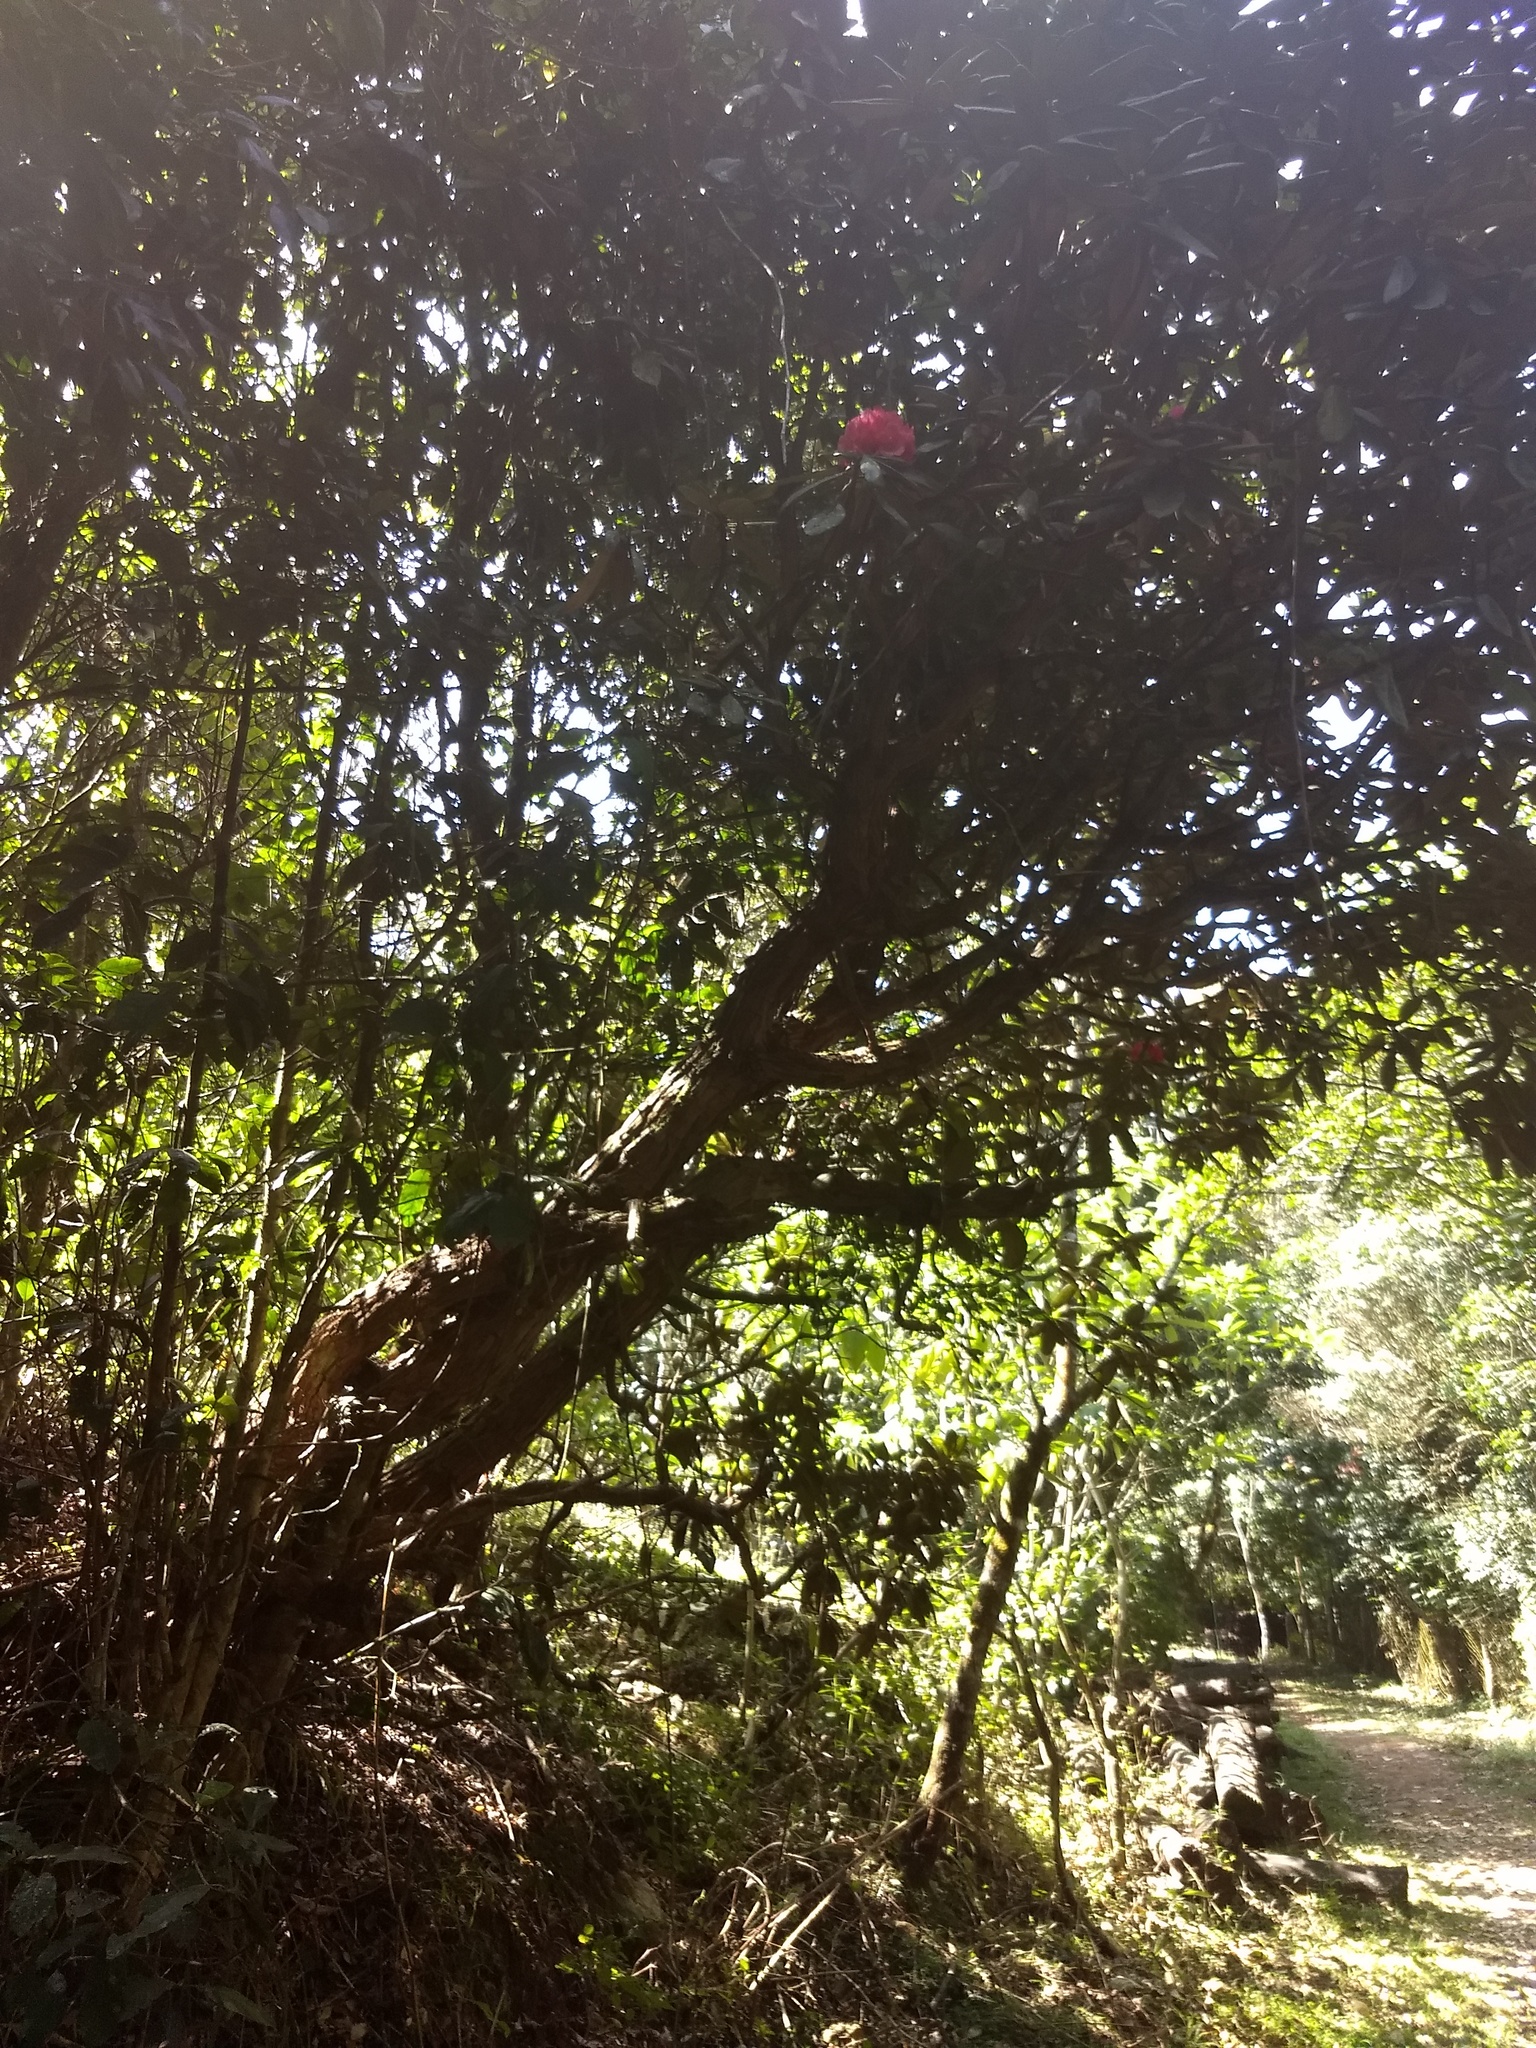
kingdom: Plantae
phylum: Tracheophyta
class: Magnoliopsida
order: Ericales
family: Ericaceae
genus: Rhododendron
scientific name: Rhododendron arboreum
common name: Tree rhododendron
